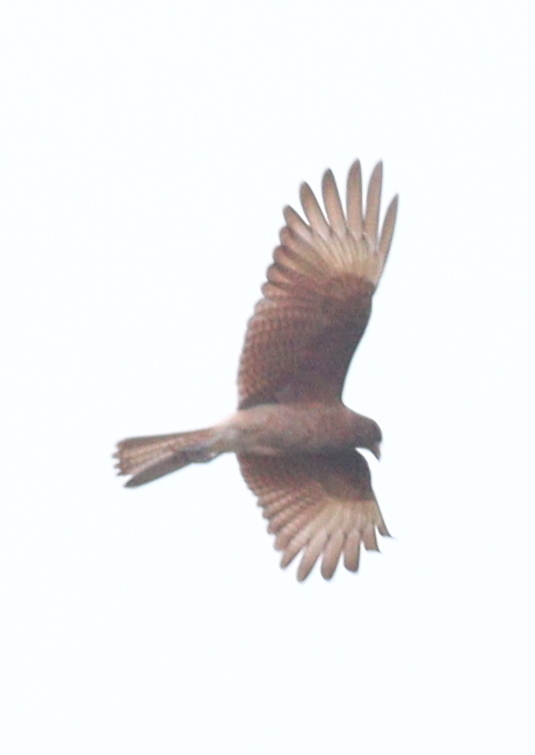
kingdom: Animalia
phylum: Chordata
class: Aves
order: Falconiformes
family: Falconidae
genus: Daptrius
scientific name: Daptrius
